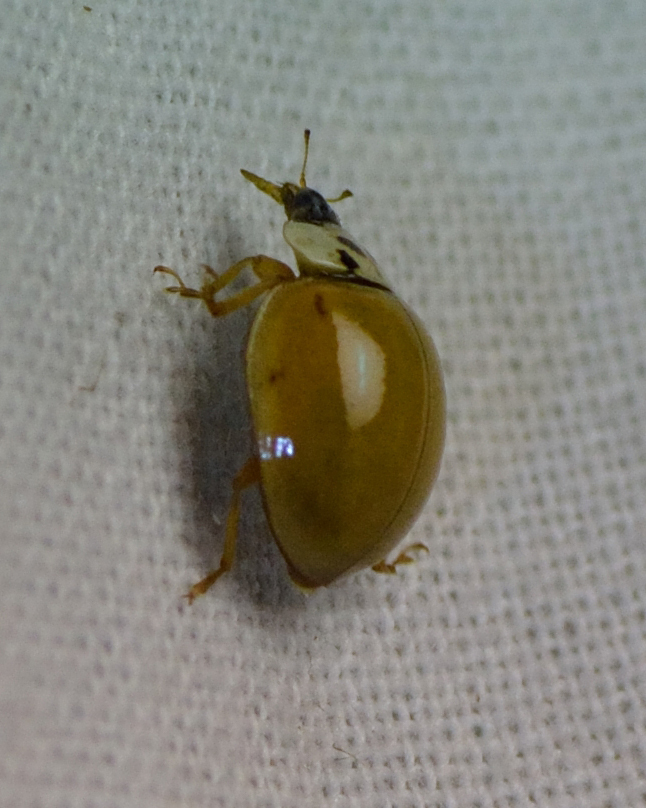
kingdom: Animalia
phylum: Arthropoda
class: Insecta
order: Coleoptera
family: Coccinellidae
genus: Harmonia
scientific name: Harmonia axyridis
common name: Harlequin ladybird
